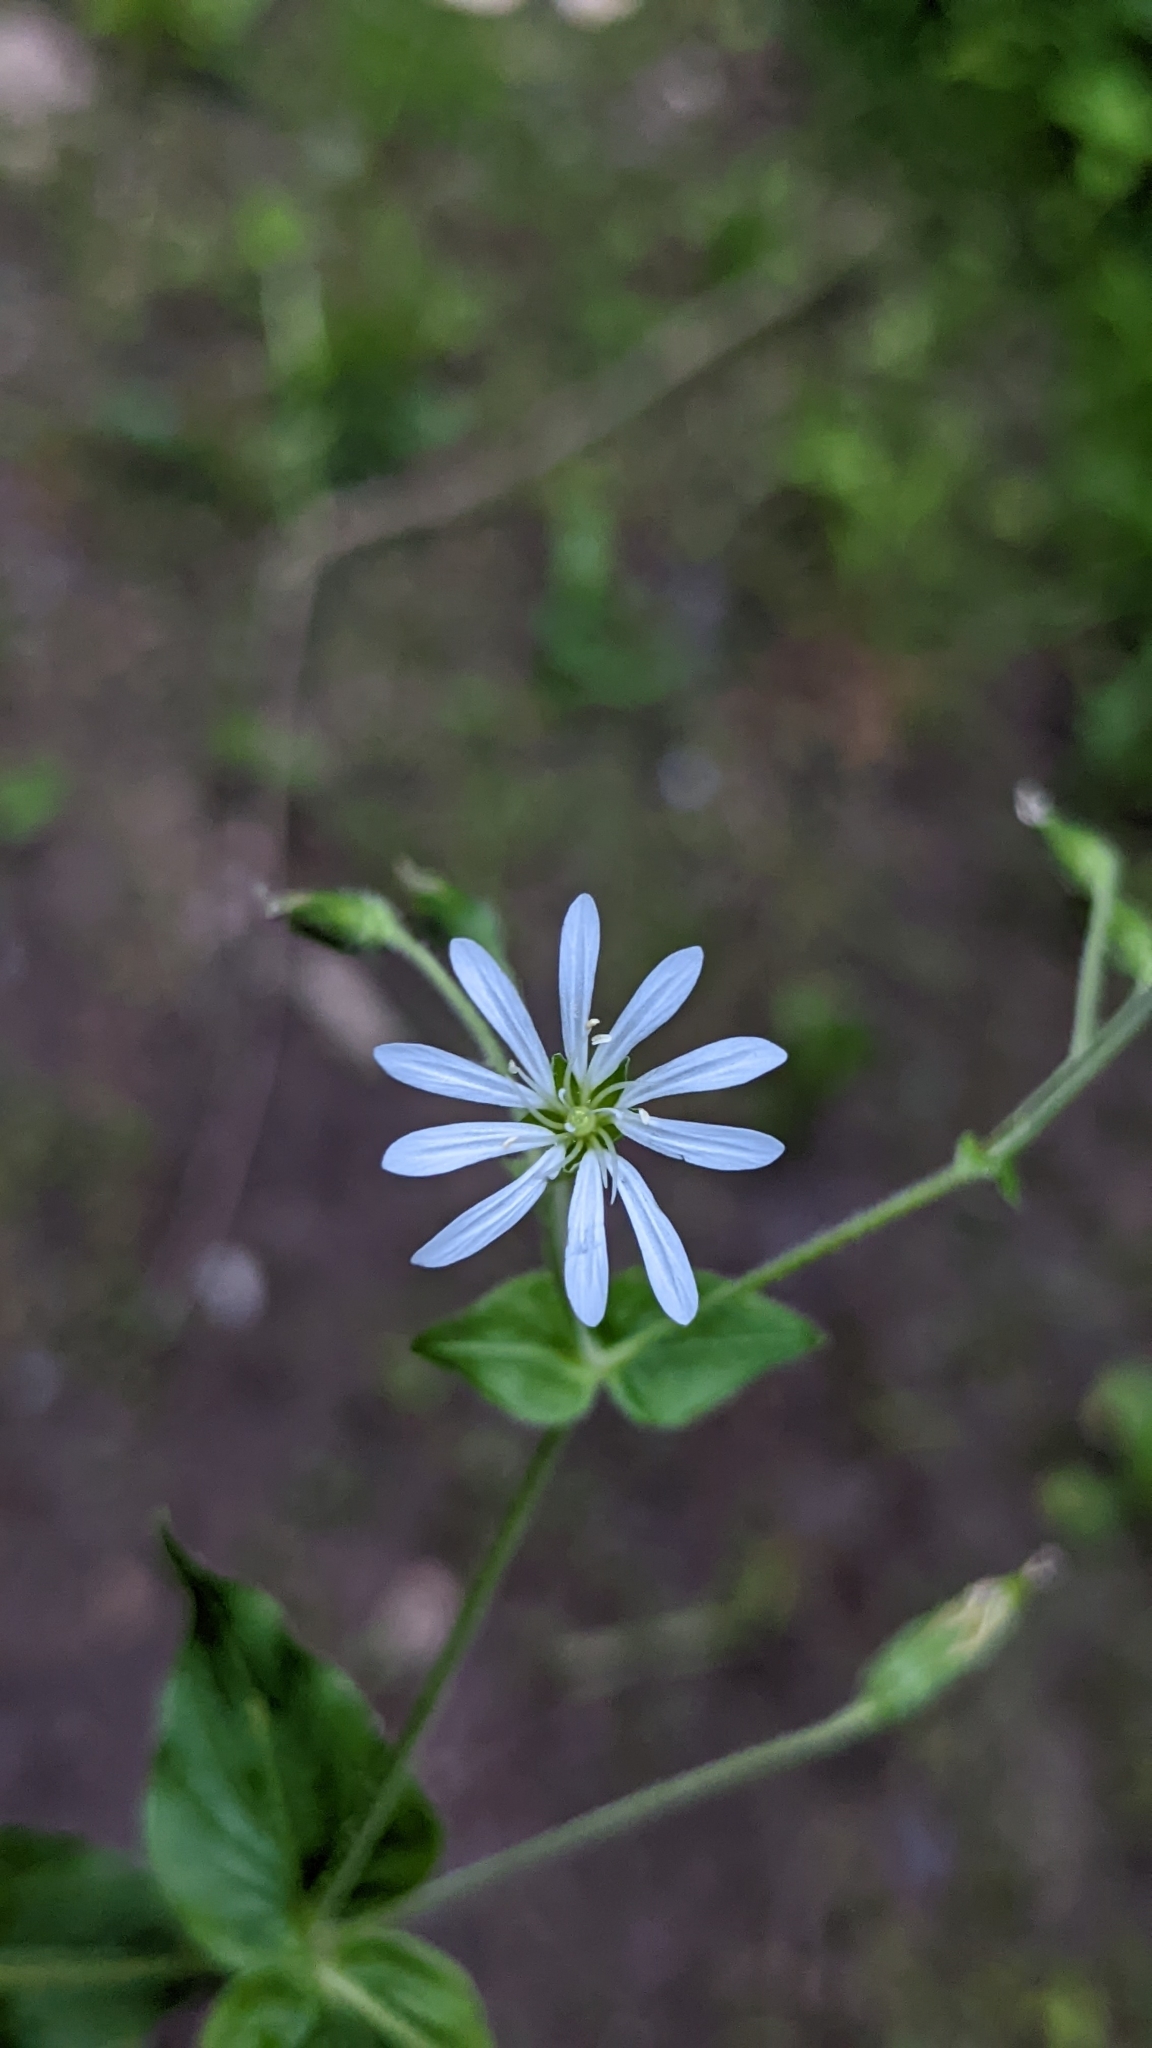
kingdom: Plantae
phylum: Tracheophyta
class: Magnoliopsida
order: Caryophyllales
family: Caryophyllaceae
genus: Stellaria
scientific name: Stellaria nemorum
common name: Wood stitchwort
